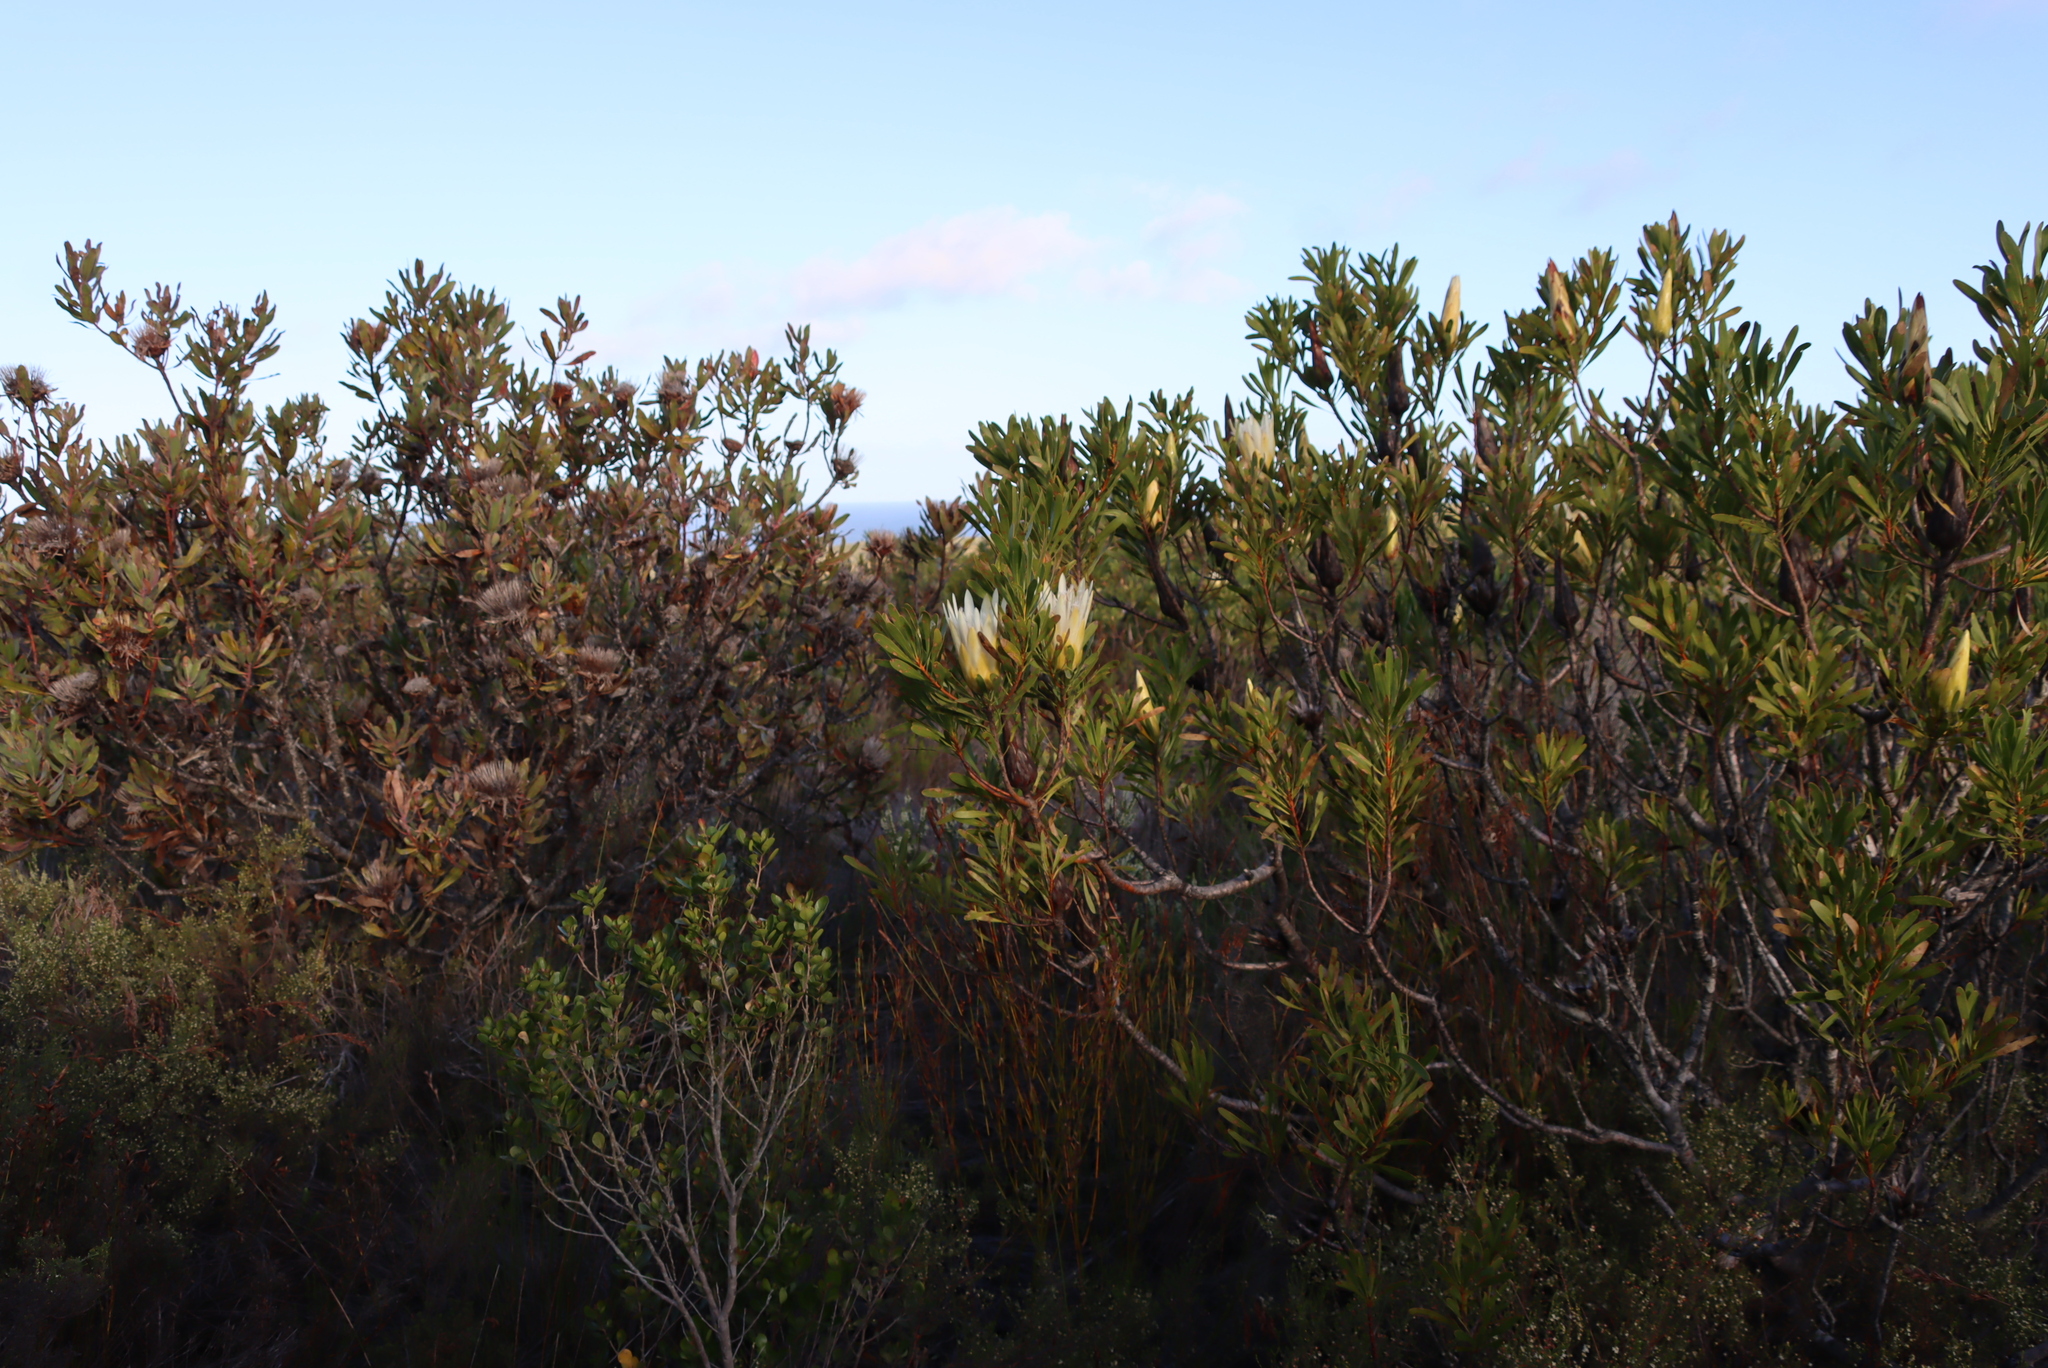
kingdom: Plantae
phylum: Tracheophyta
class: Magnoliopsida
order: Proteales
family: Proteaceae
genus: Protea
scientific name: Protea repens
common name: Sugarbush
